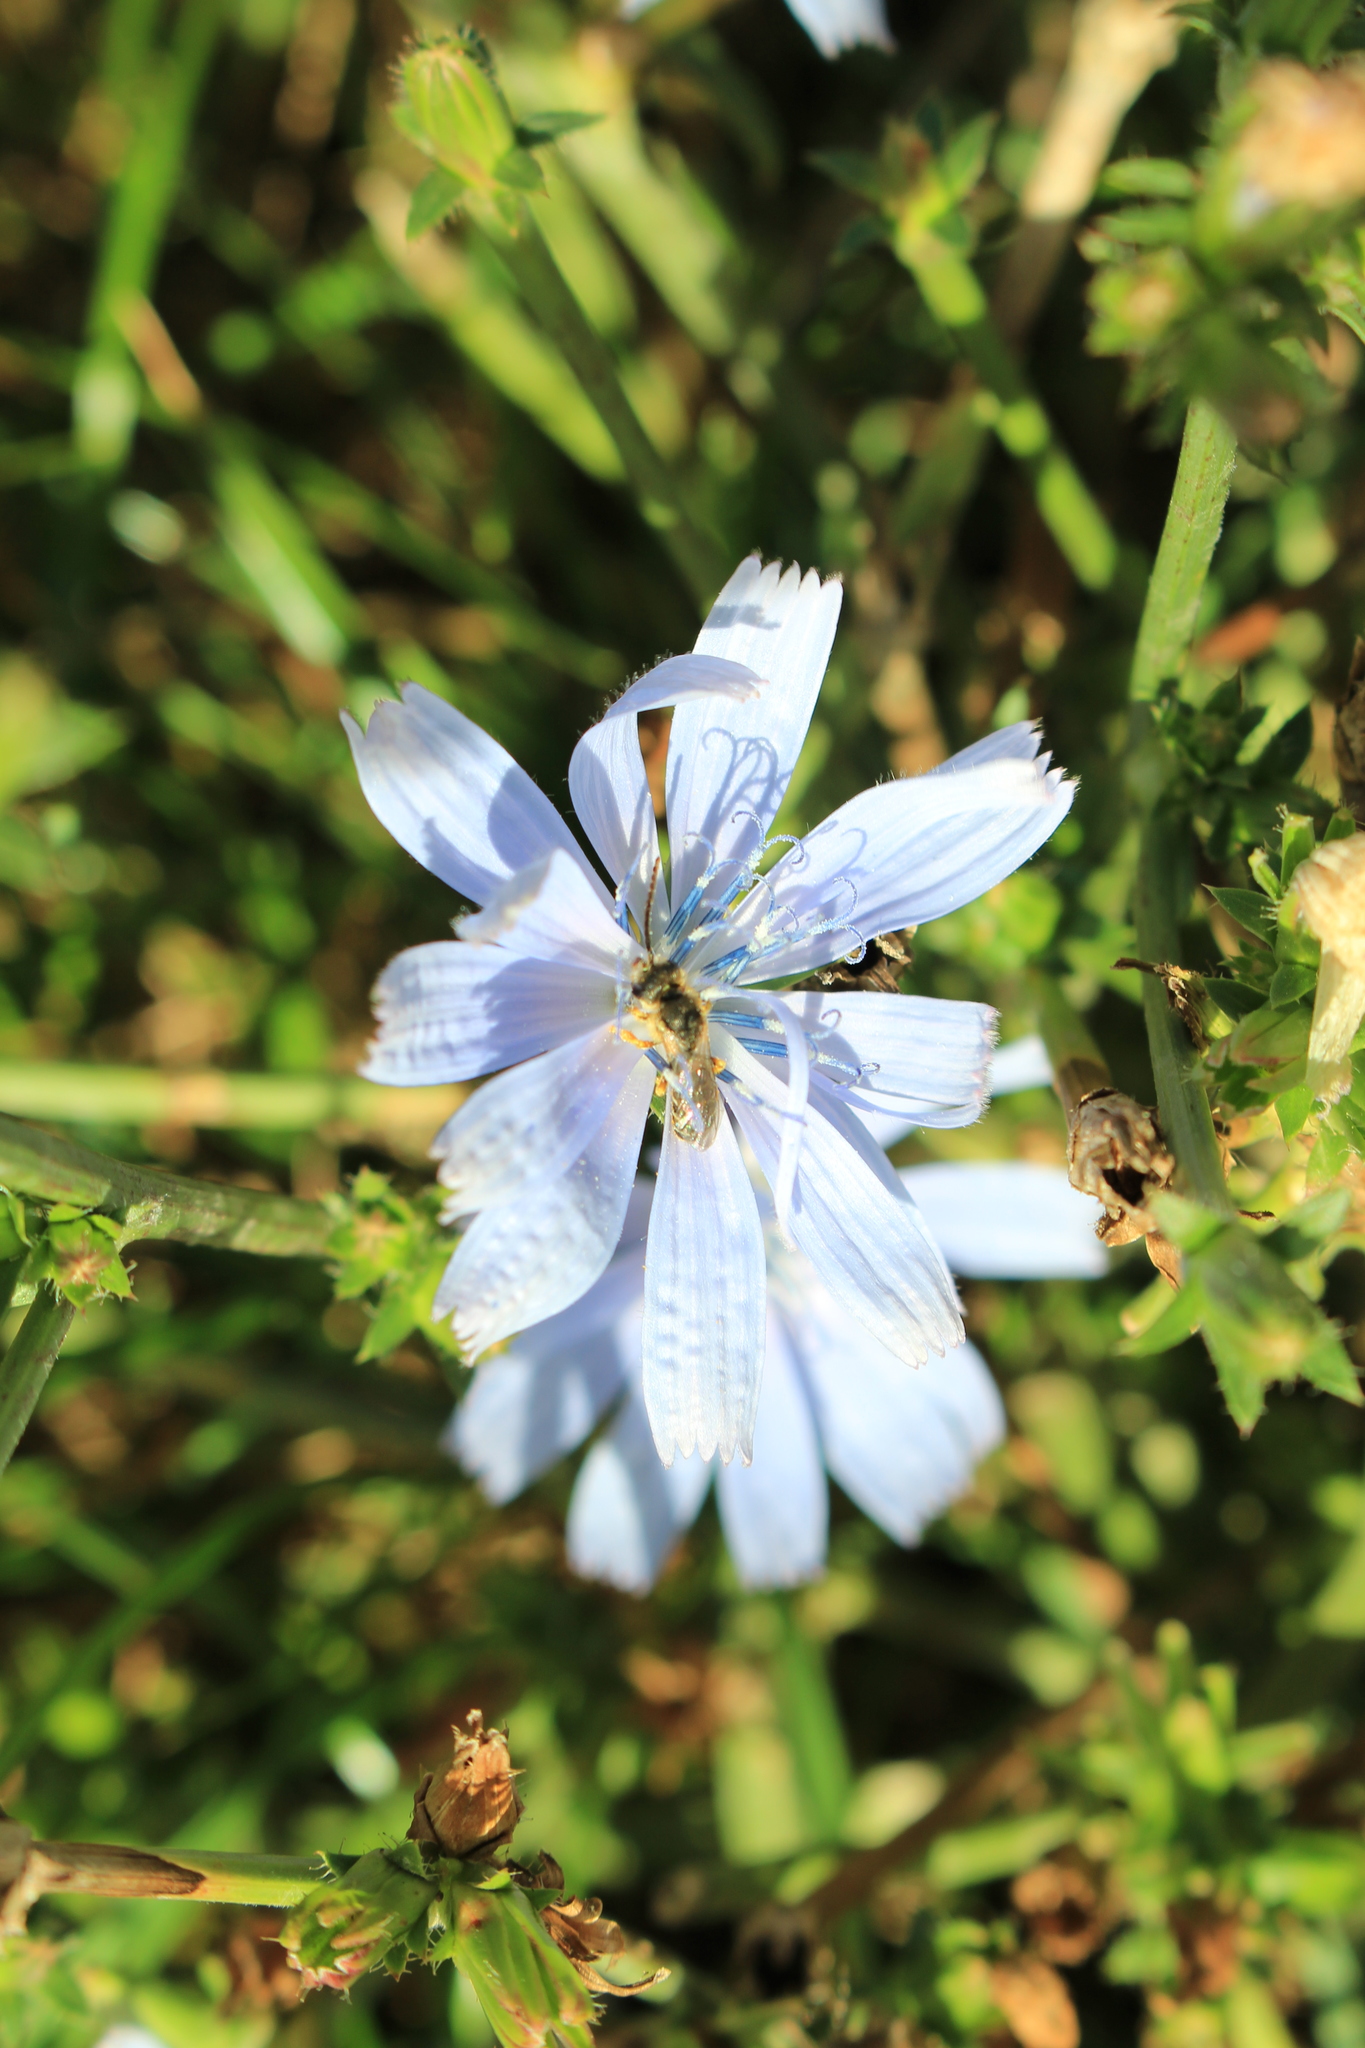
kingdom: Plantae
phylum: Tracheophyta
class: Magnoliopsida
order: Asterales
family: Asteraceae
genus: Cichorium
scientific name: Cichorium intybus
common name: Chicory
